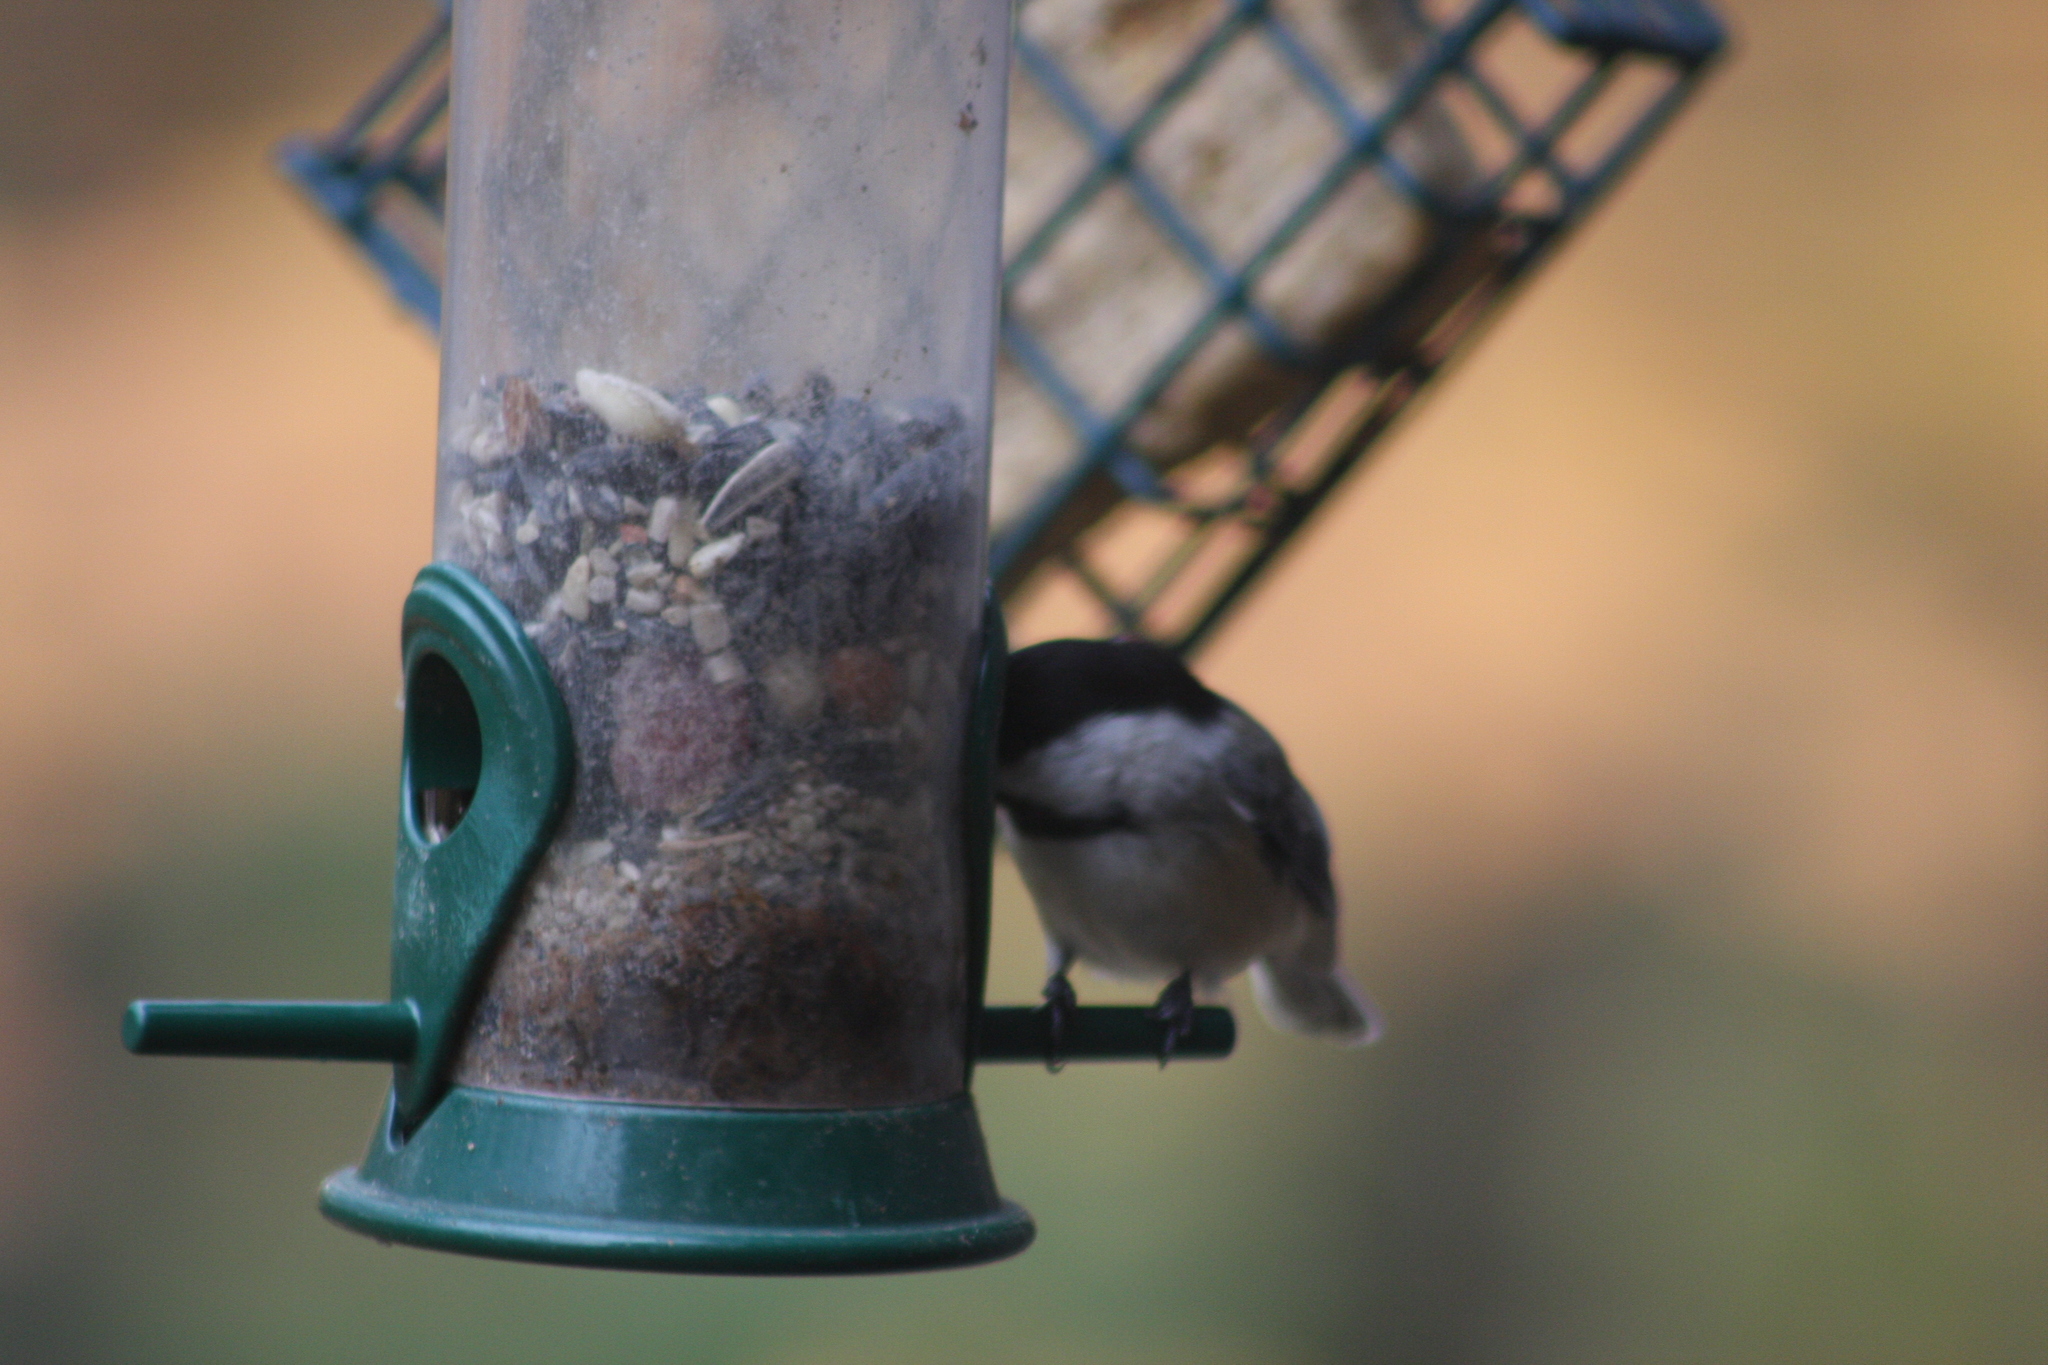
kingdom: Animalia
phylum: Chordata
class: Aves
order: Passeriformes
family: Paridae
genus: Poecile
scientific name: Poecile atricapillus
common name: Black-capped chickadee
